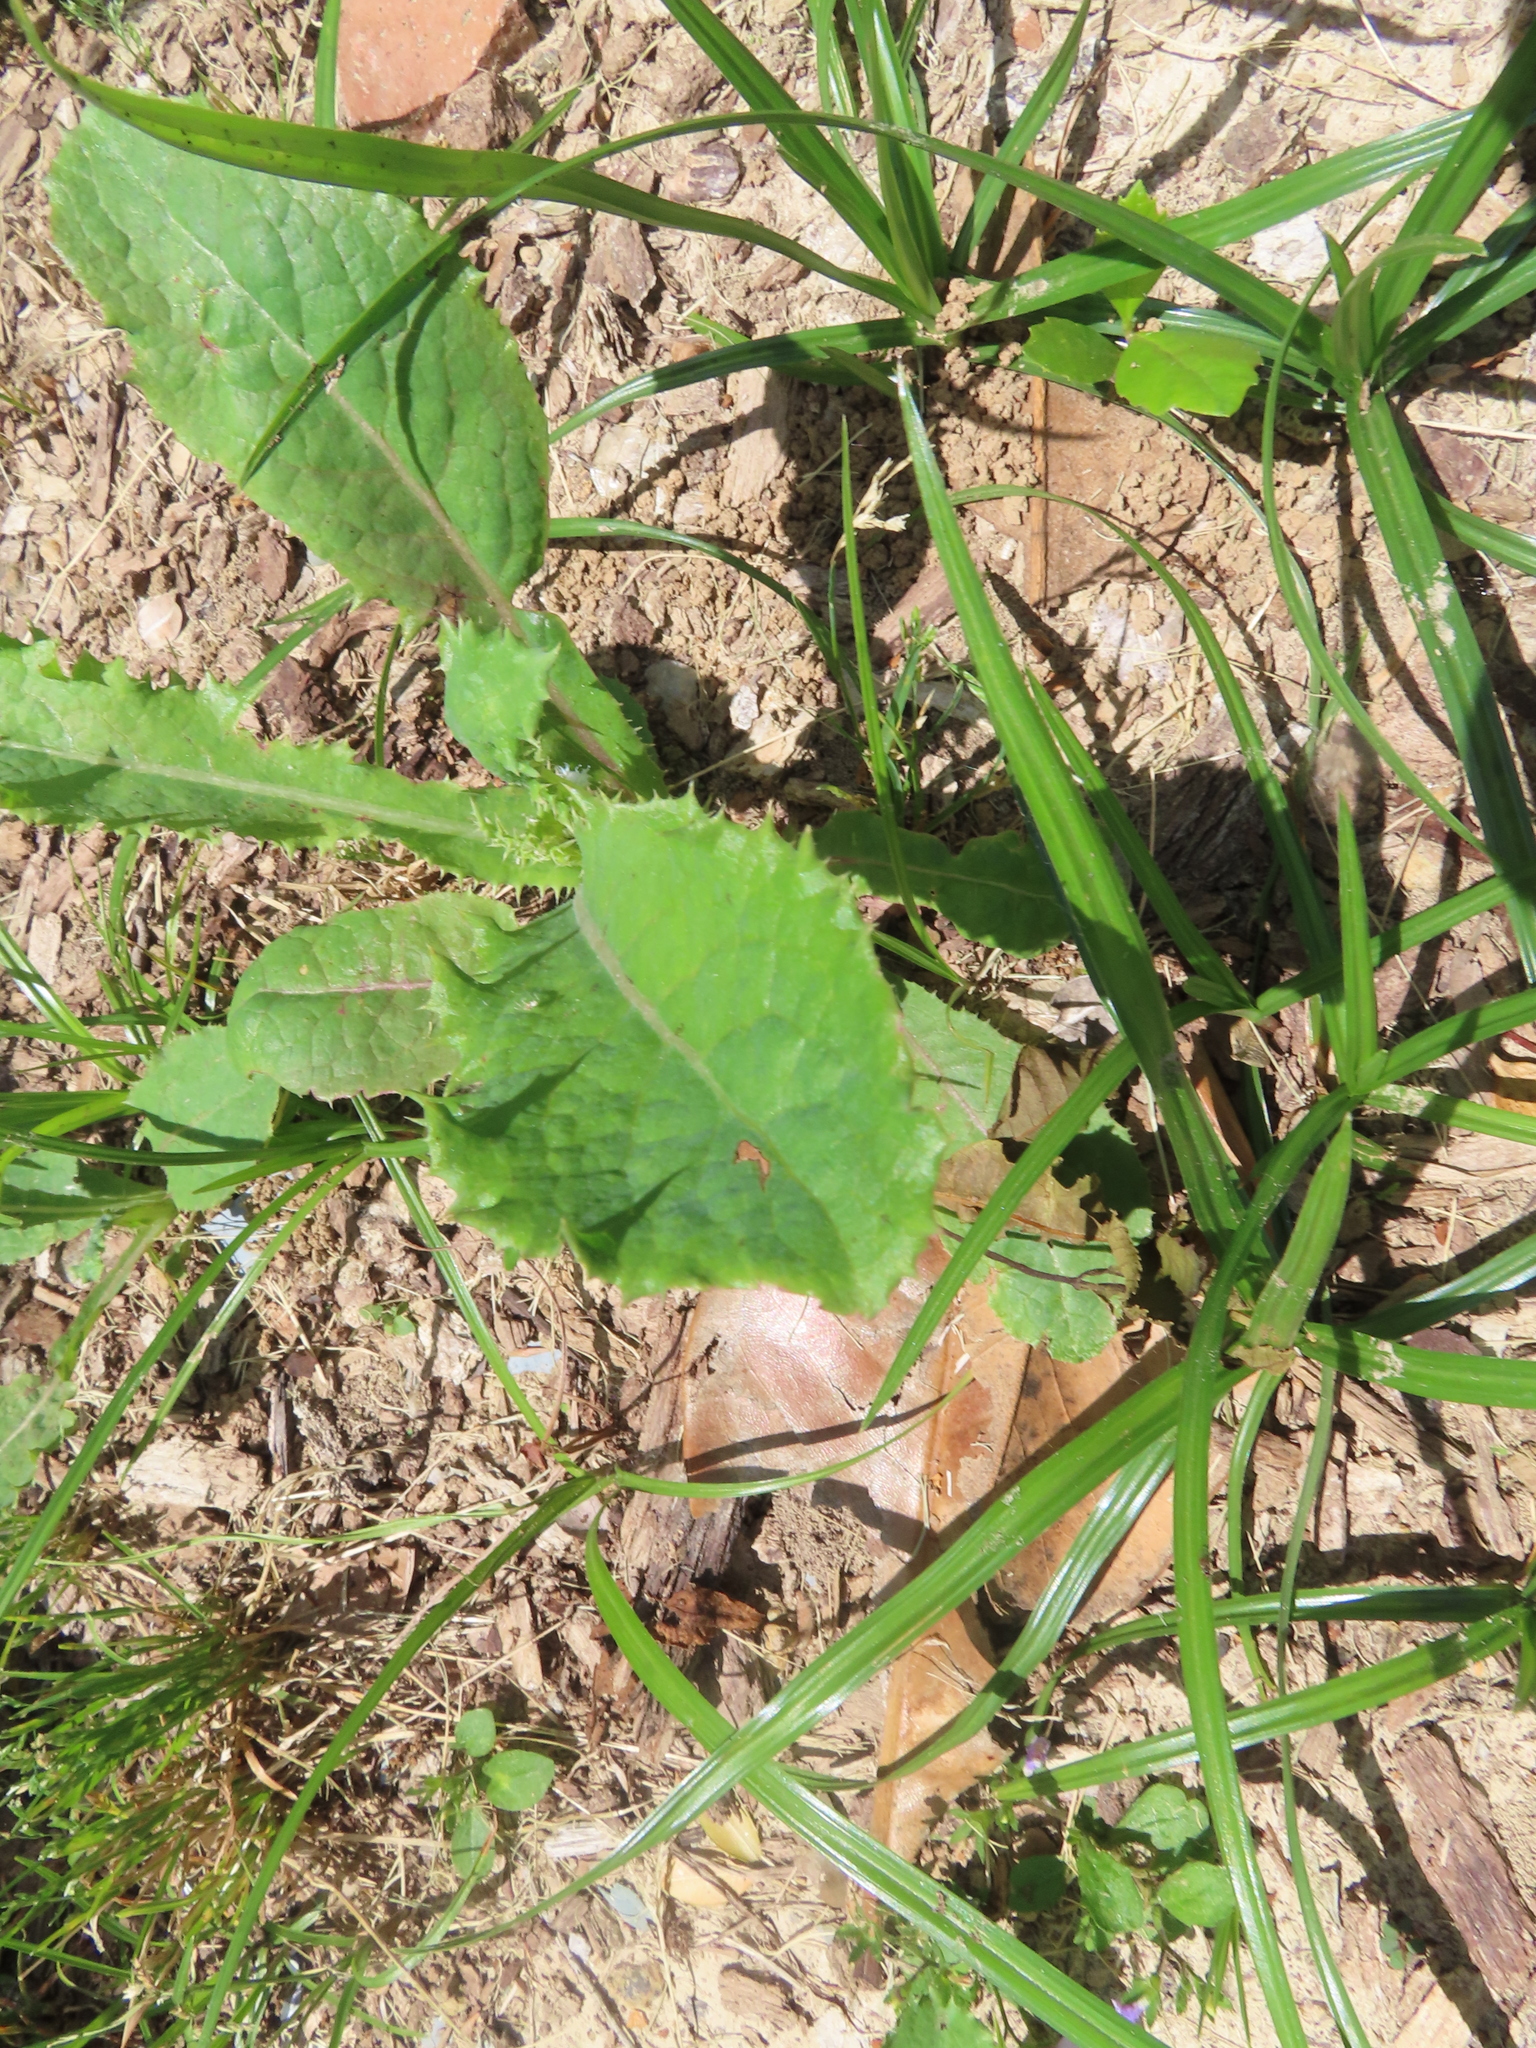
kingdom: Plantae
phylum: Tracheophyta
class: Magnoliopsida
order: Asterales
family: Asteraceae
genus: Sonchus
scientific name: Sonchus asper
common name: Prickly sow-thistle
